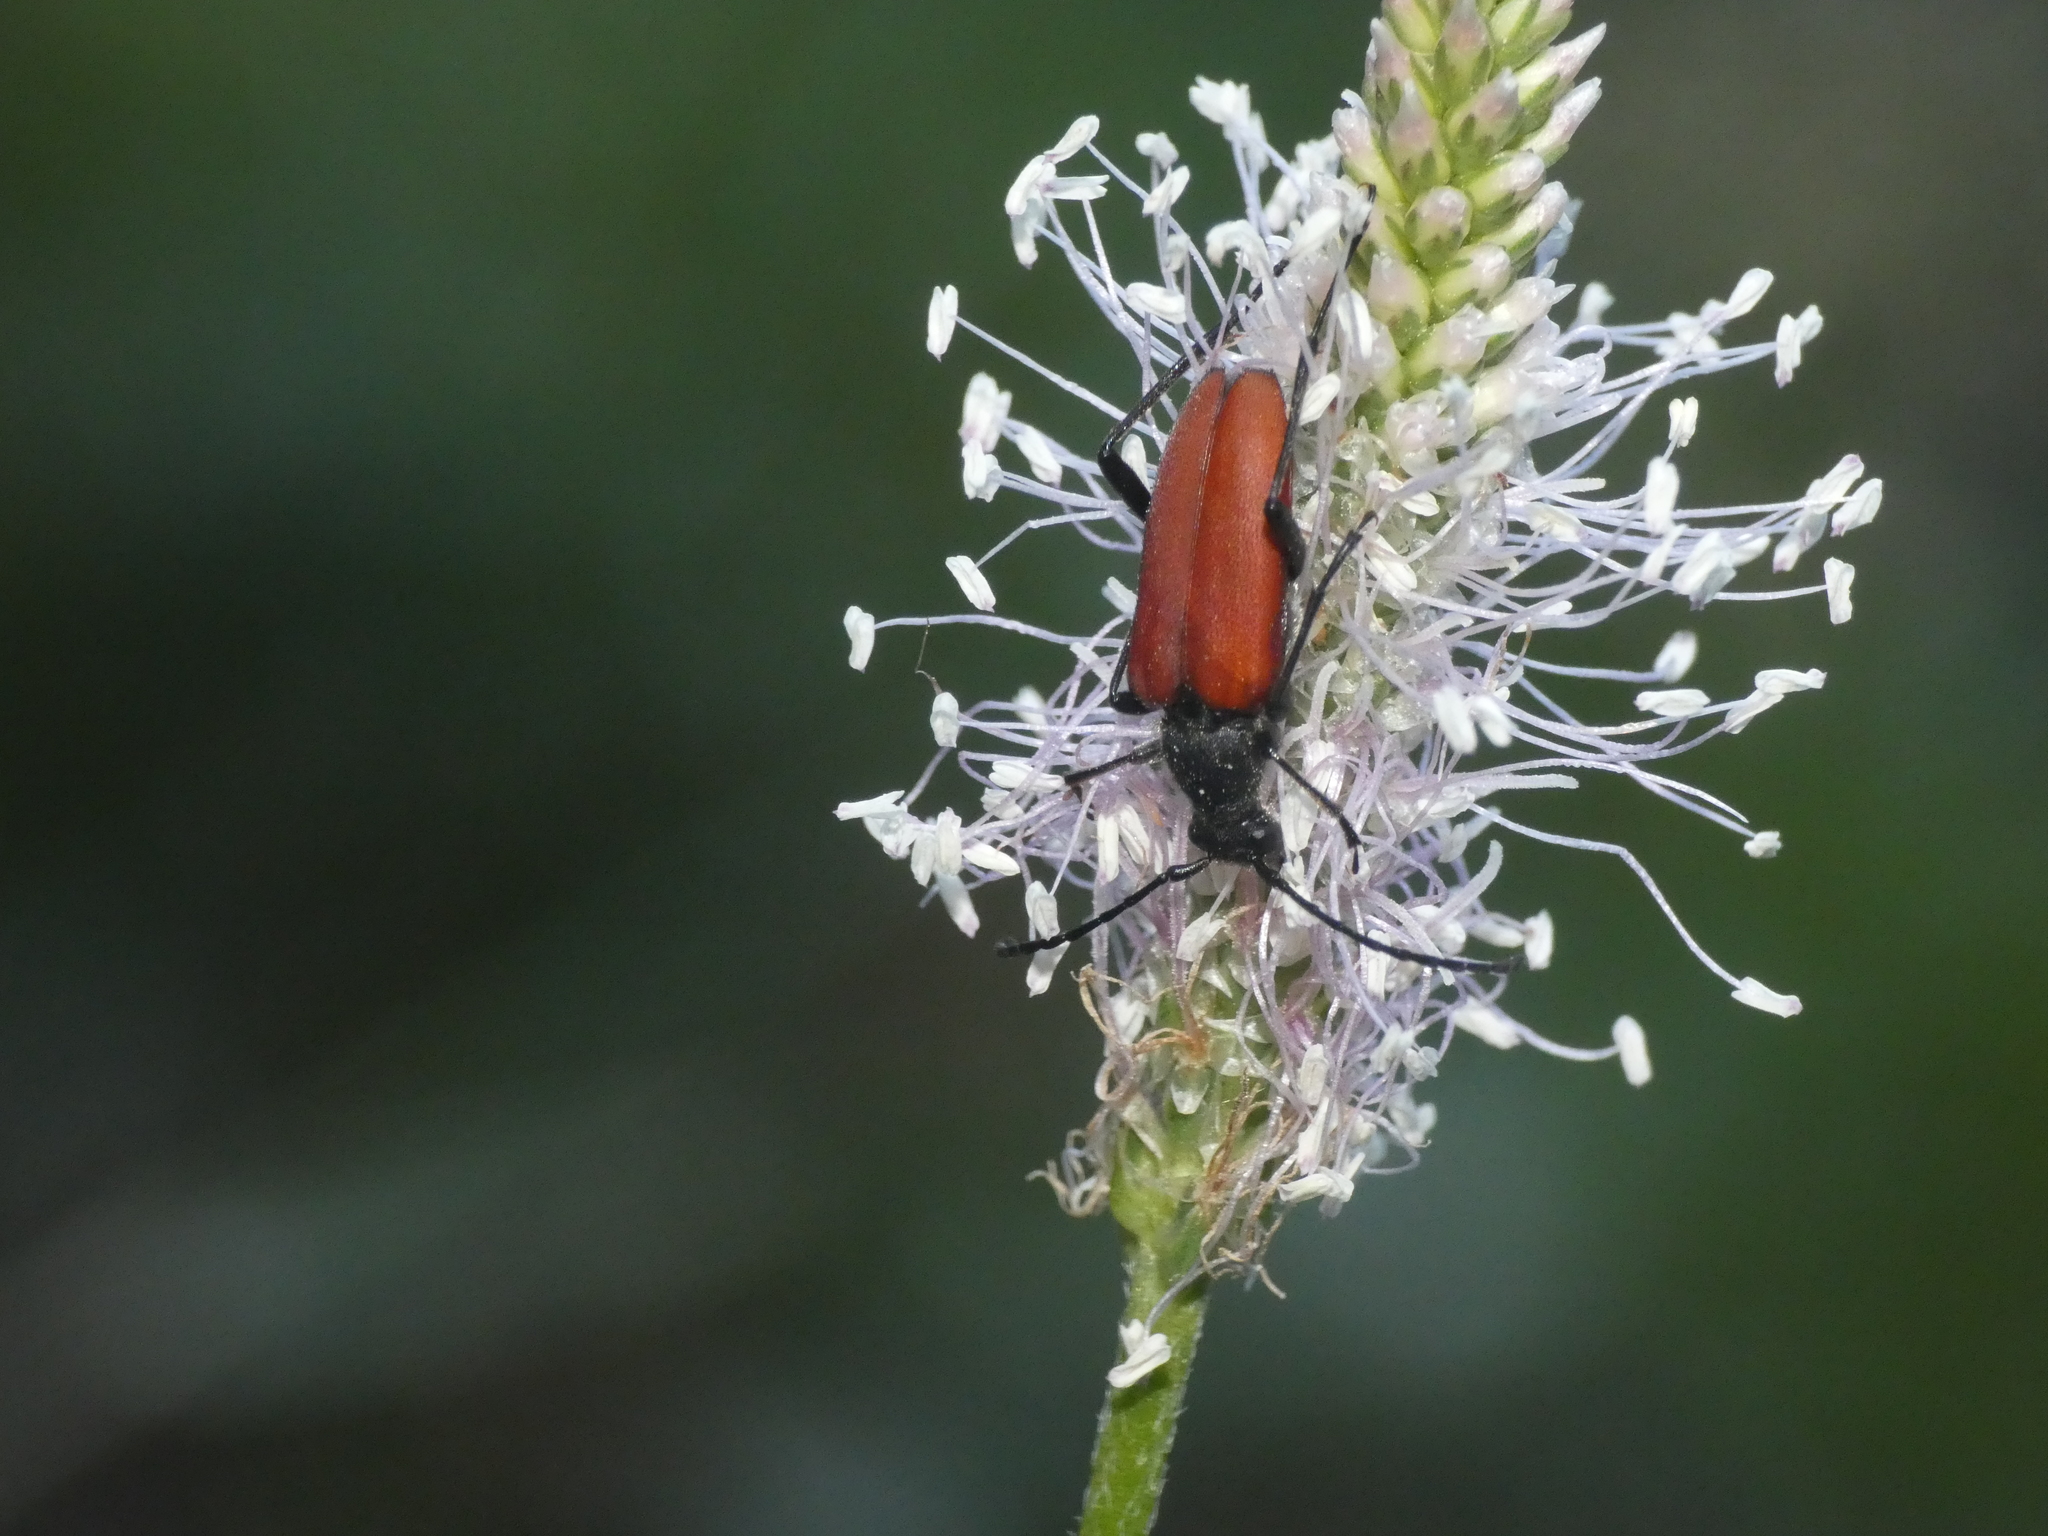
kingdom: Animalia
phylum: Arthropoda
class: Insecta
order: Coleoptera
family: Cerambycidae
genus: Anastrangalia
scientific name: Anastrangalia sanguinolenta
